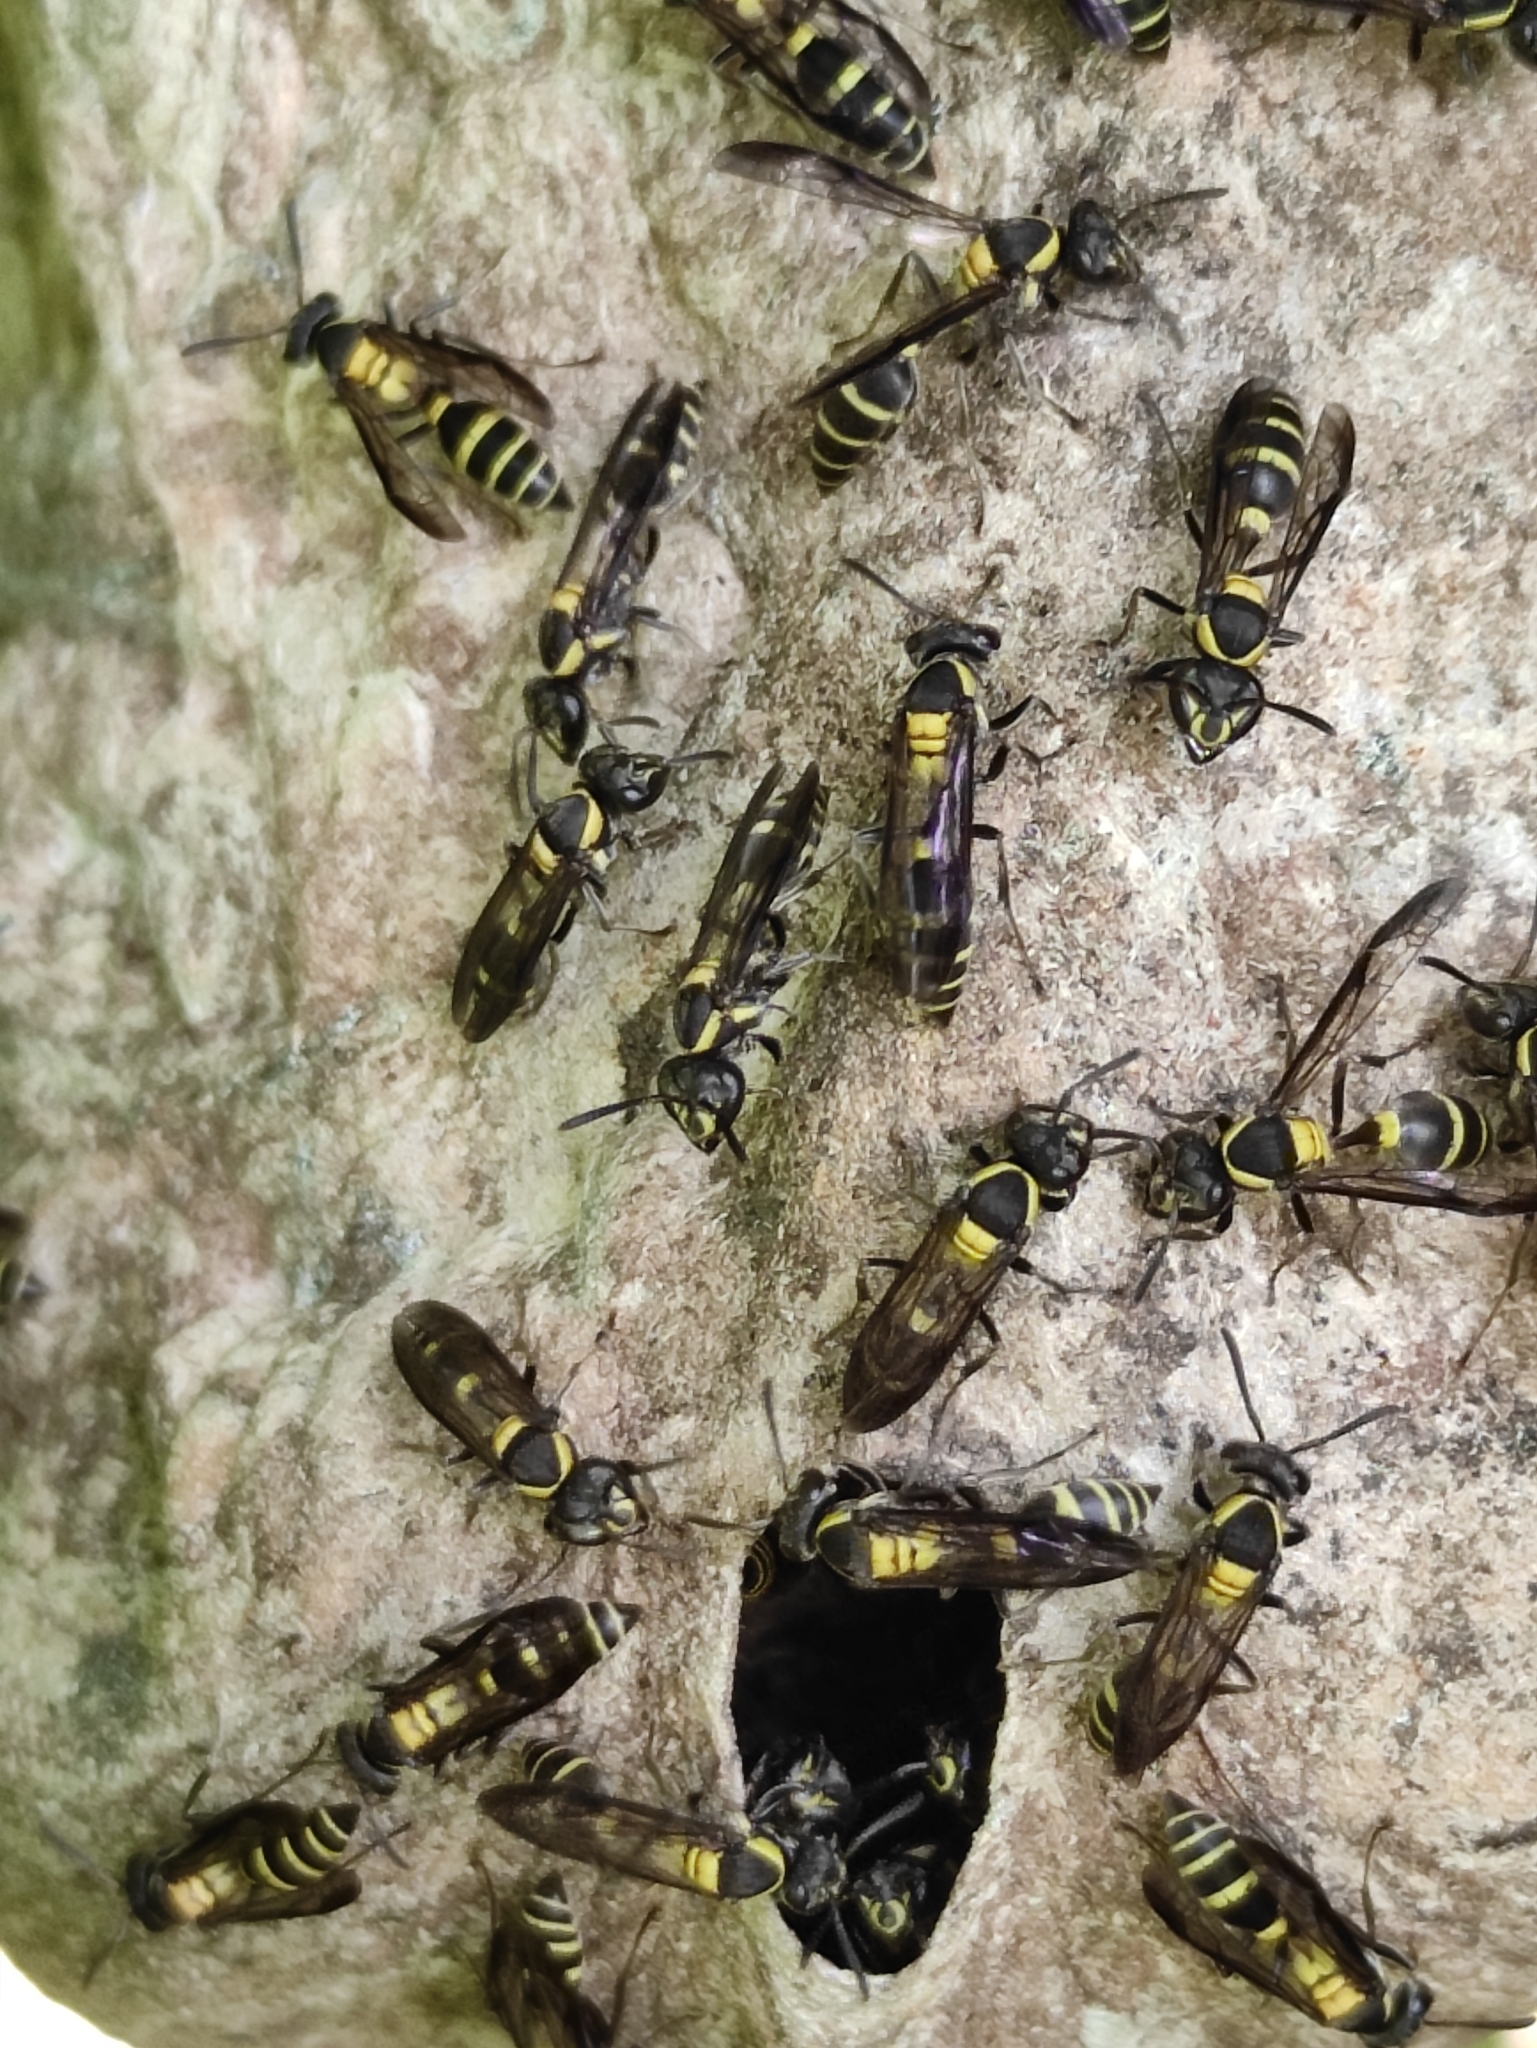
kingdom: Animalia
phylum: Arthropoda
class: Insecta
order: Hymenoptera
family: Eumenidae
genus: Polybia
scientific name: Polybia occidentalis
